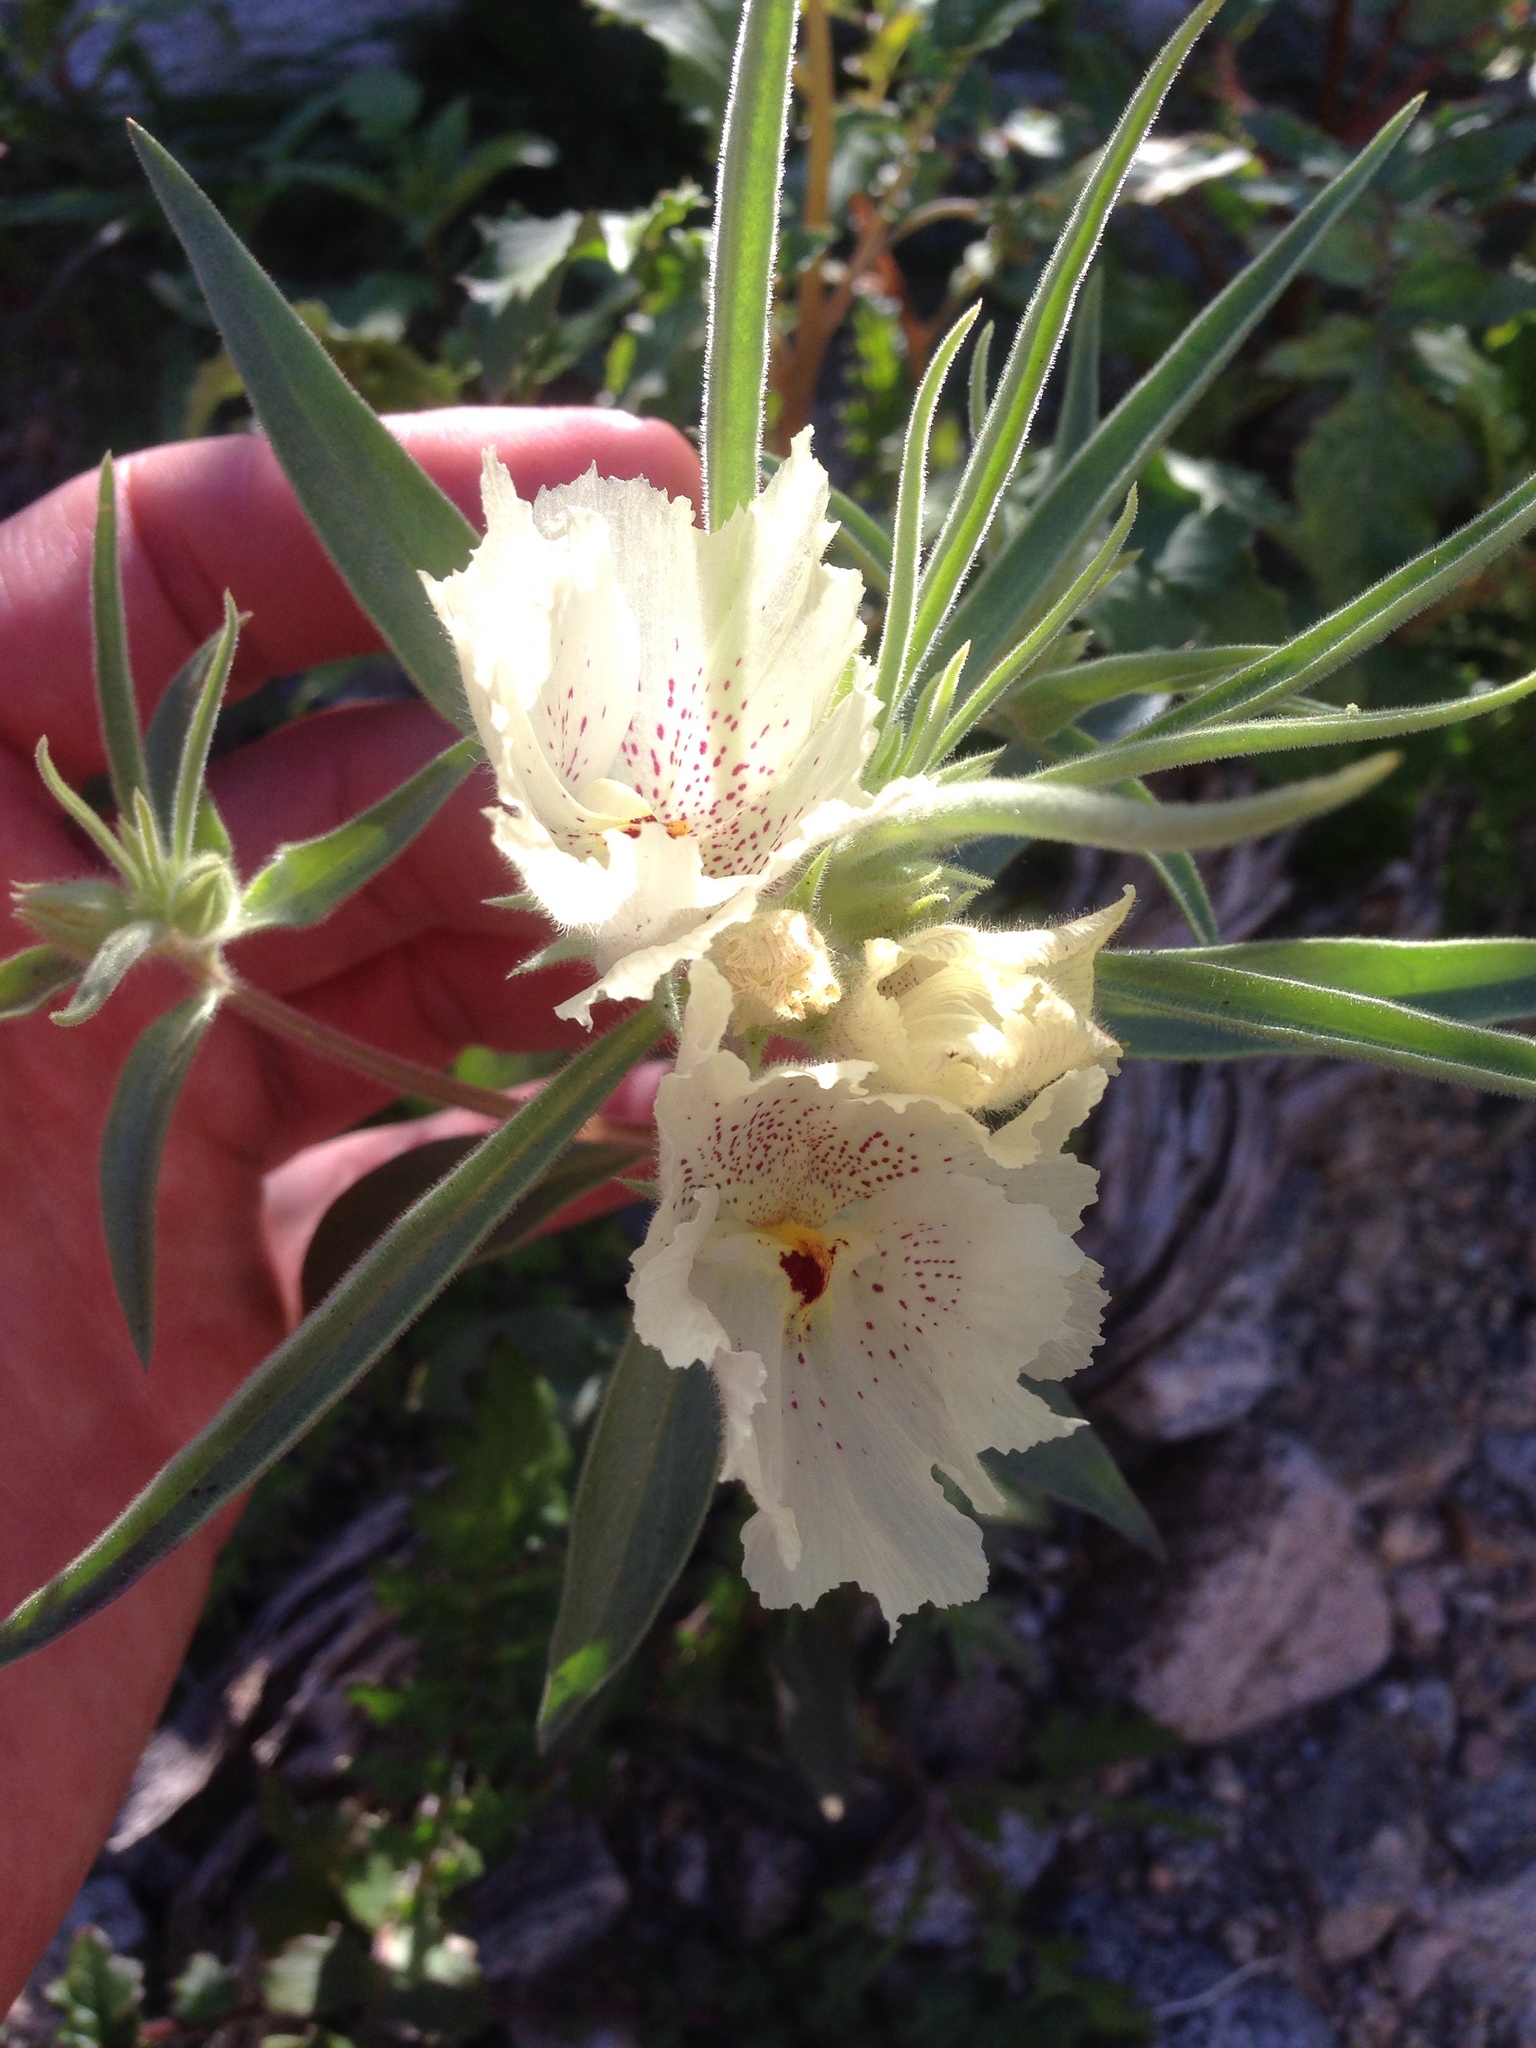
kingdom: Plantae
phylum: Tracheophyta
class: Magnoliopsida
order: Lamiales
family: Plantaginaceae
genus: Mohavea
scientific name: Mohavea confertiflora
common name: Ghost flower
